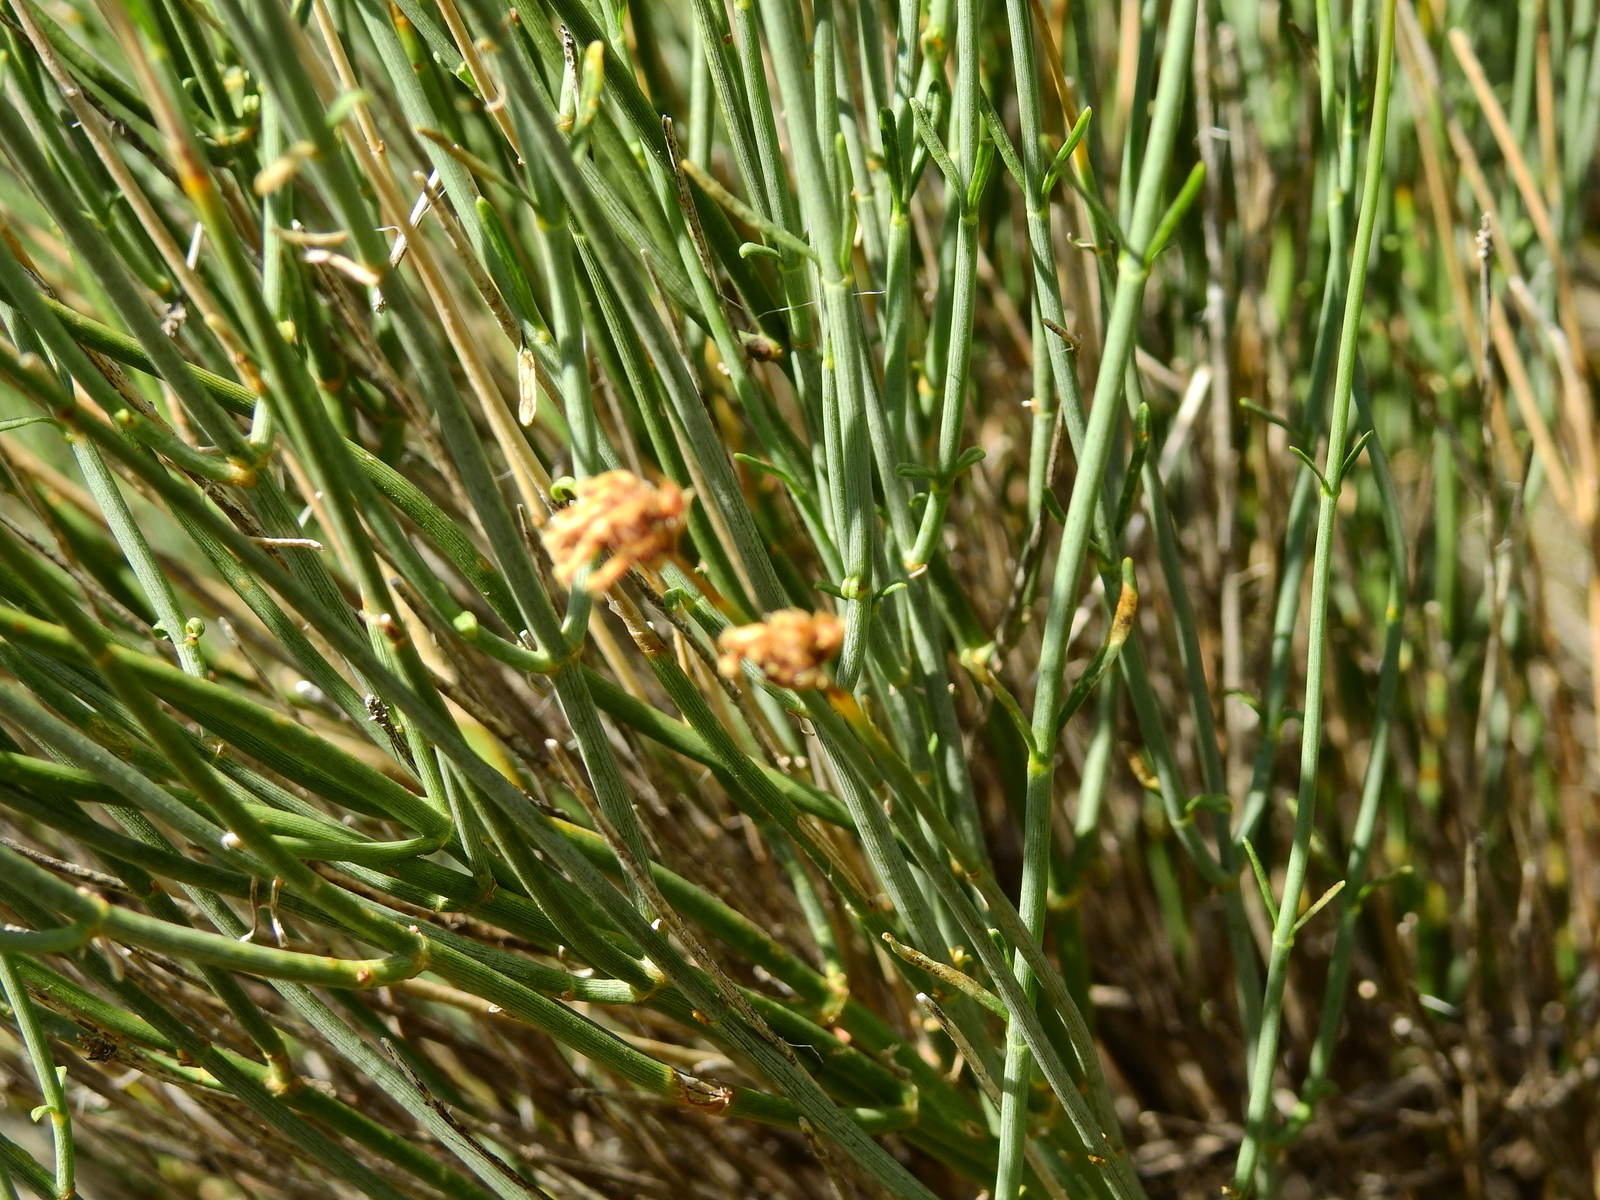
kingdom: Plantae
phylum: Tracheophyta
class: Magnoliopsida
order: Lamiales
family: Verbenaceae
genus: Junellia
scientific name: Junellia spathulata
